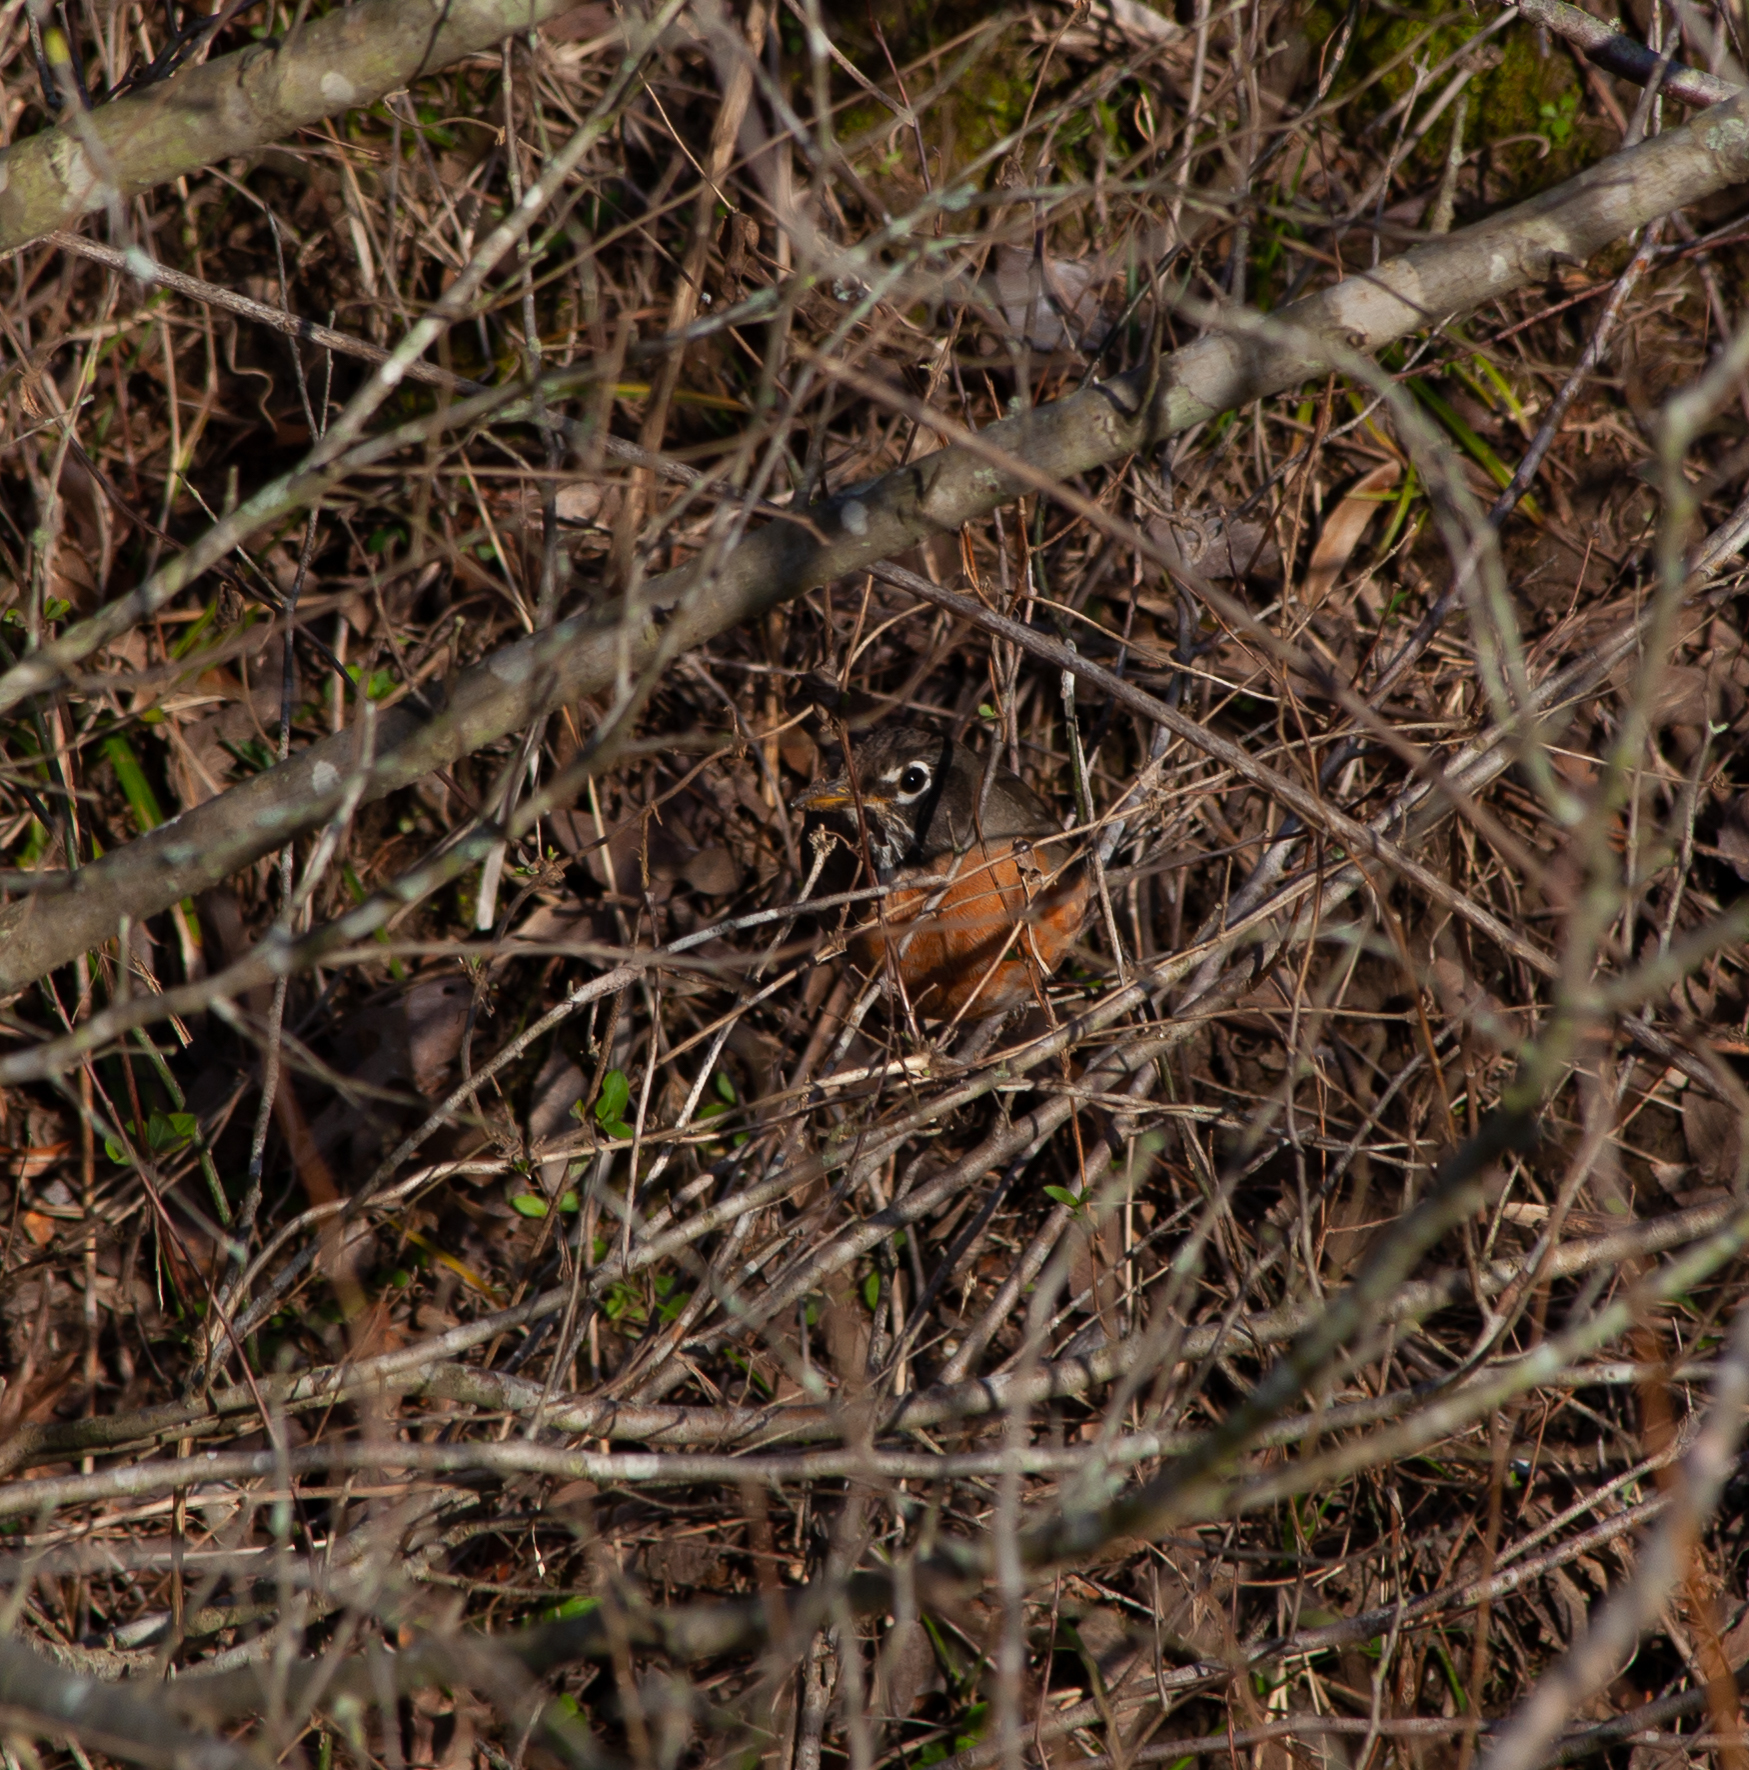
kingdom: Animalia
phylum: Chordata
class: Aves
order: Passeriformes
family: Turdidae
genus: Turdus
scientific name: Turdus migratorius
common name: American robin
